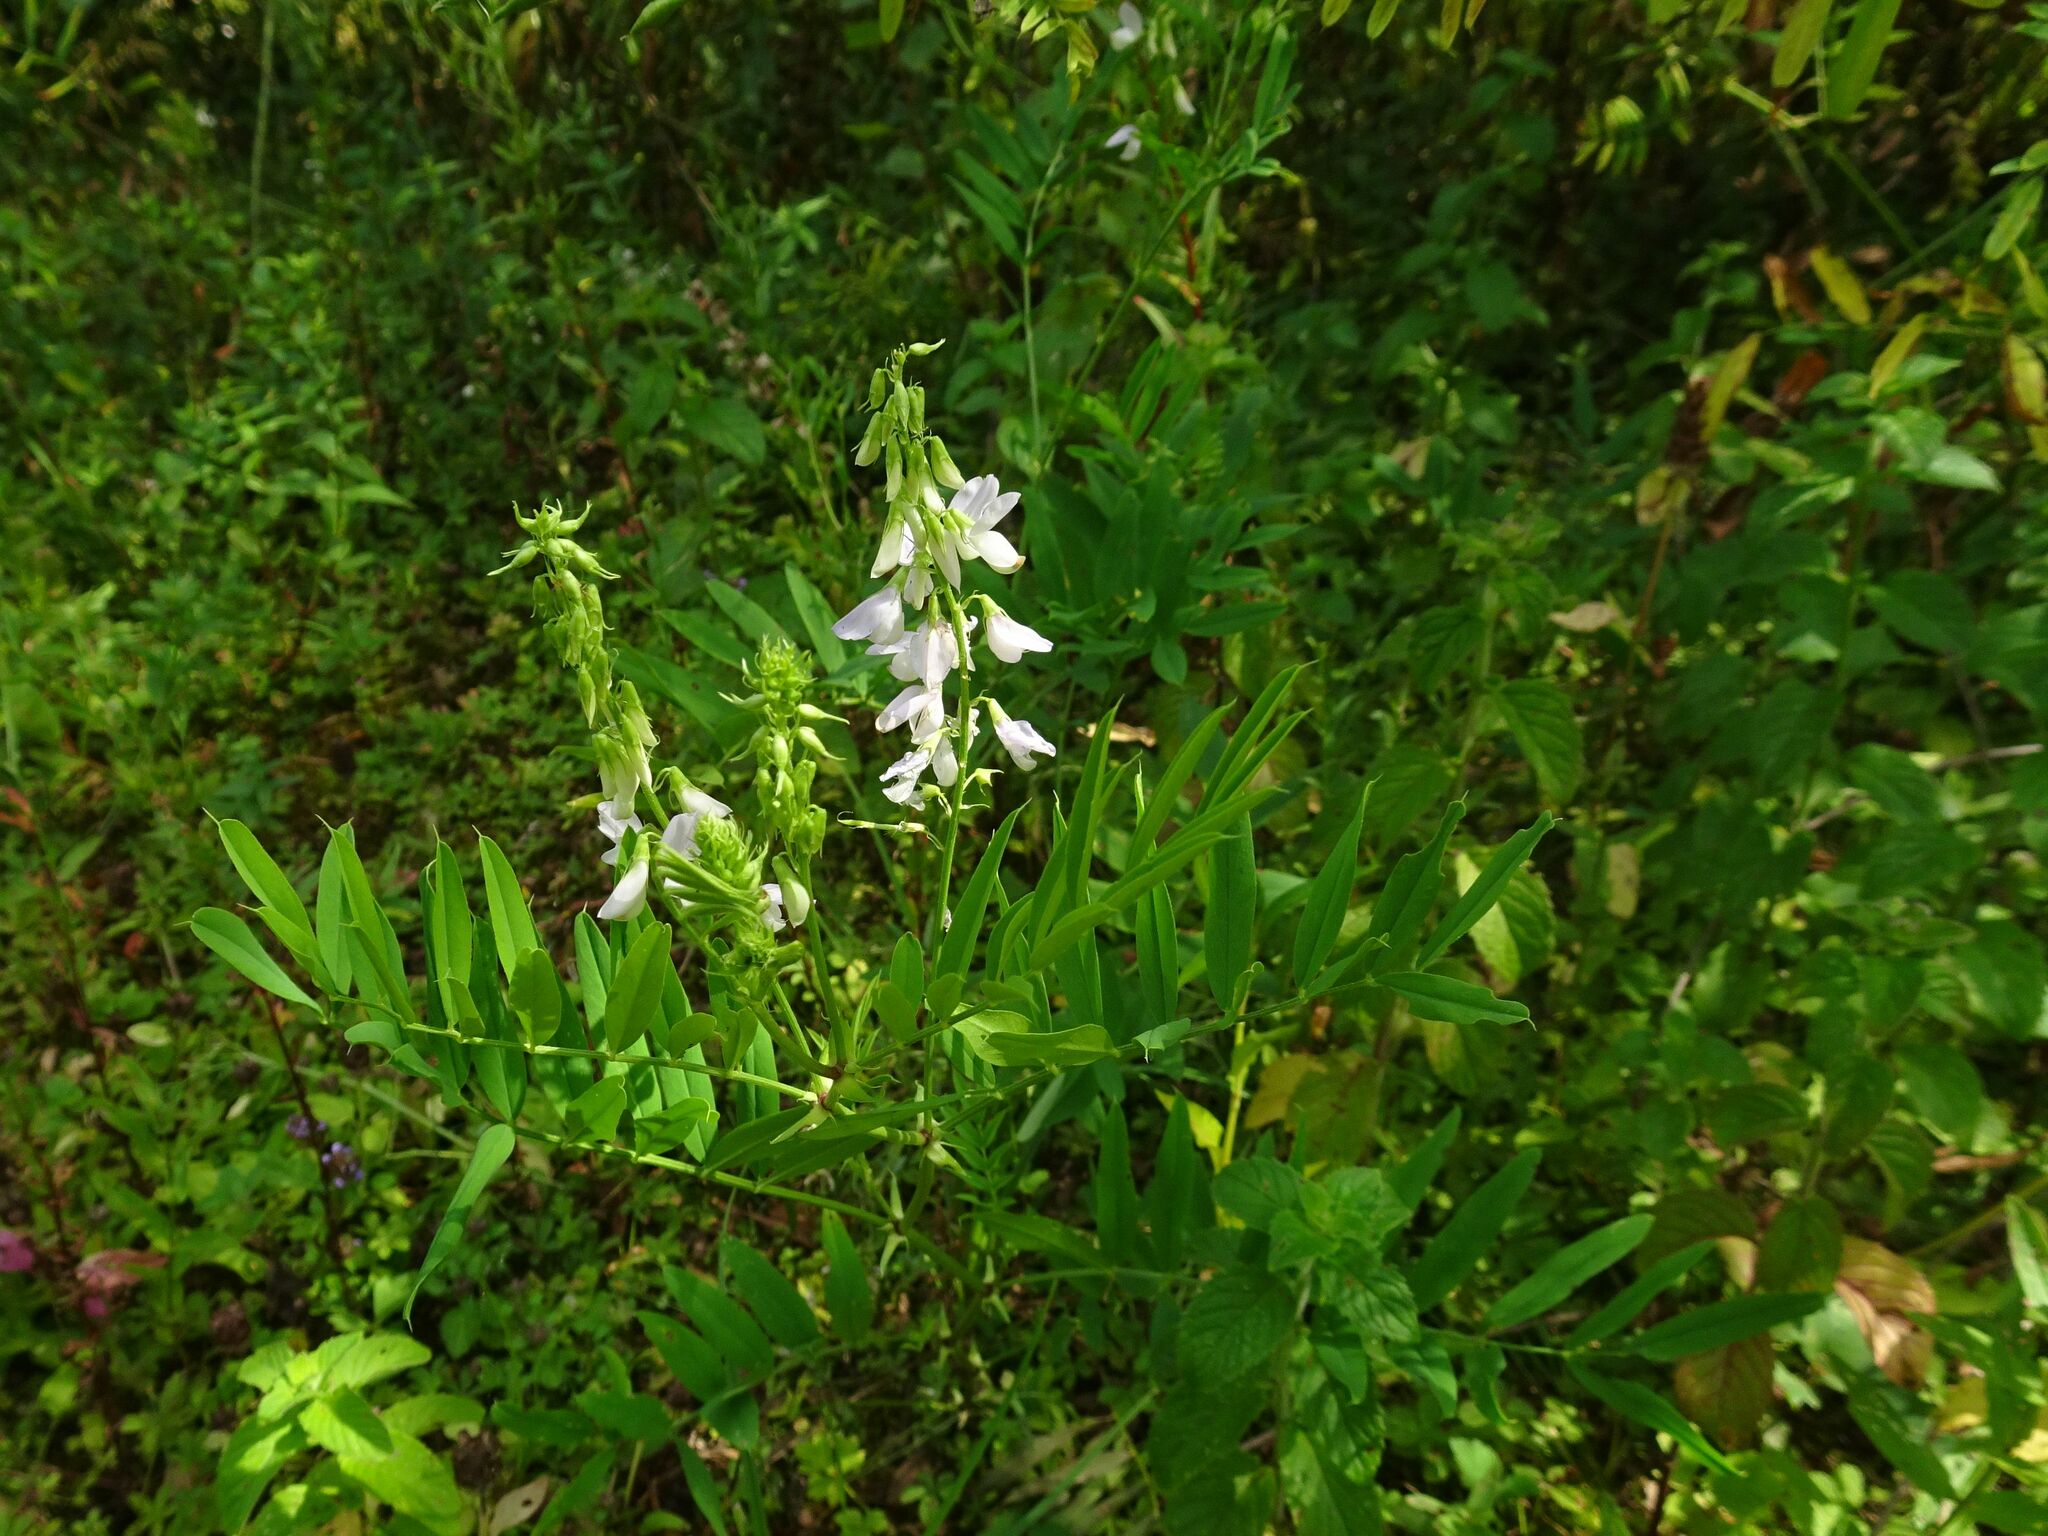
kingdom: Plantae
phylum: Tracheophyta
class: Magnoliopsida
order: Fabales
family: Fabaceae
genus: Galega
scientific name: Galega officinalis
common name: Goat's-rue
